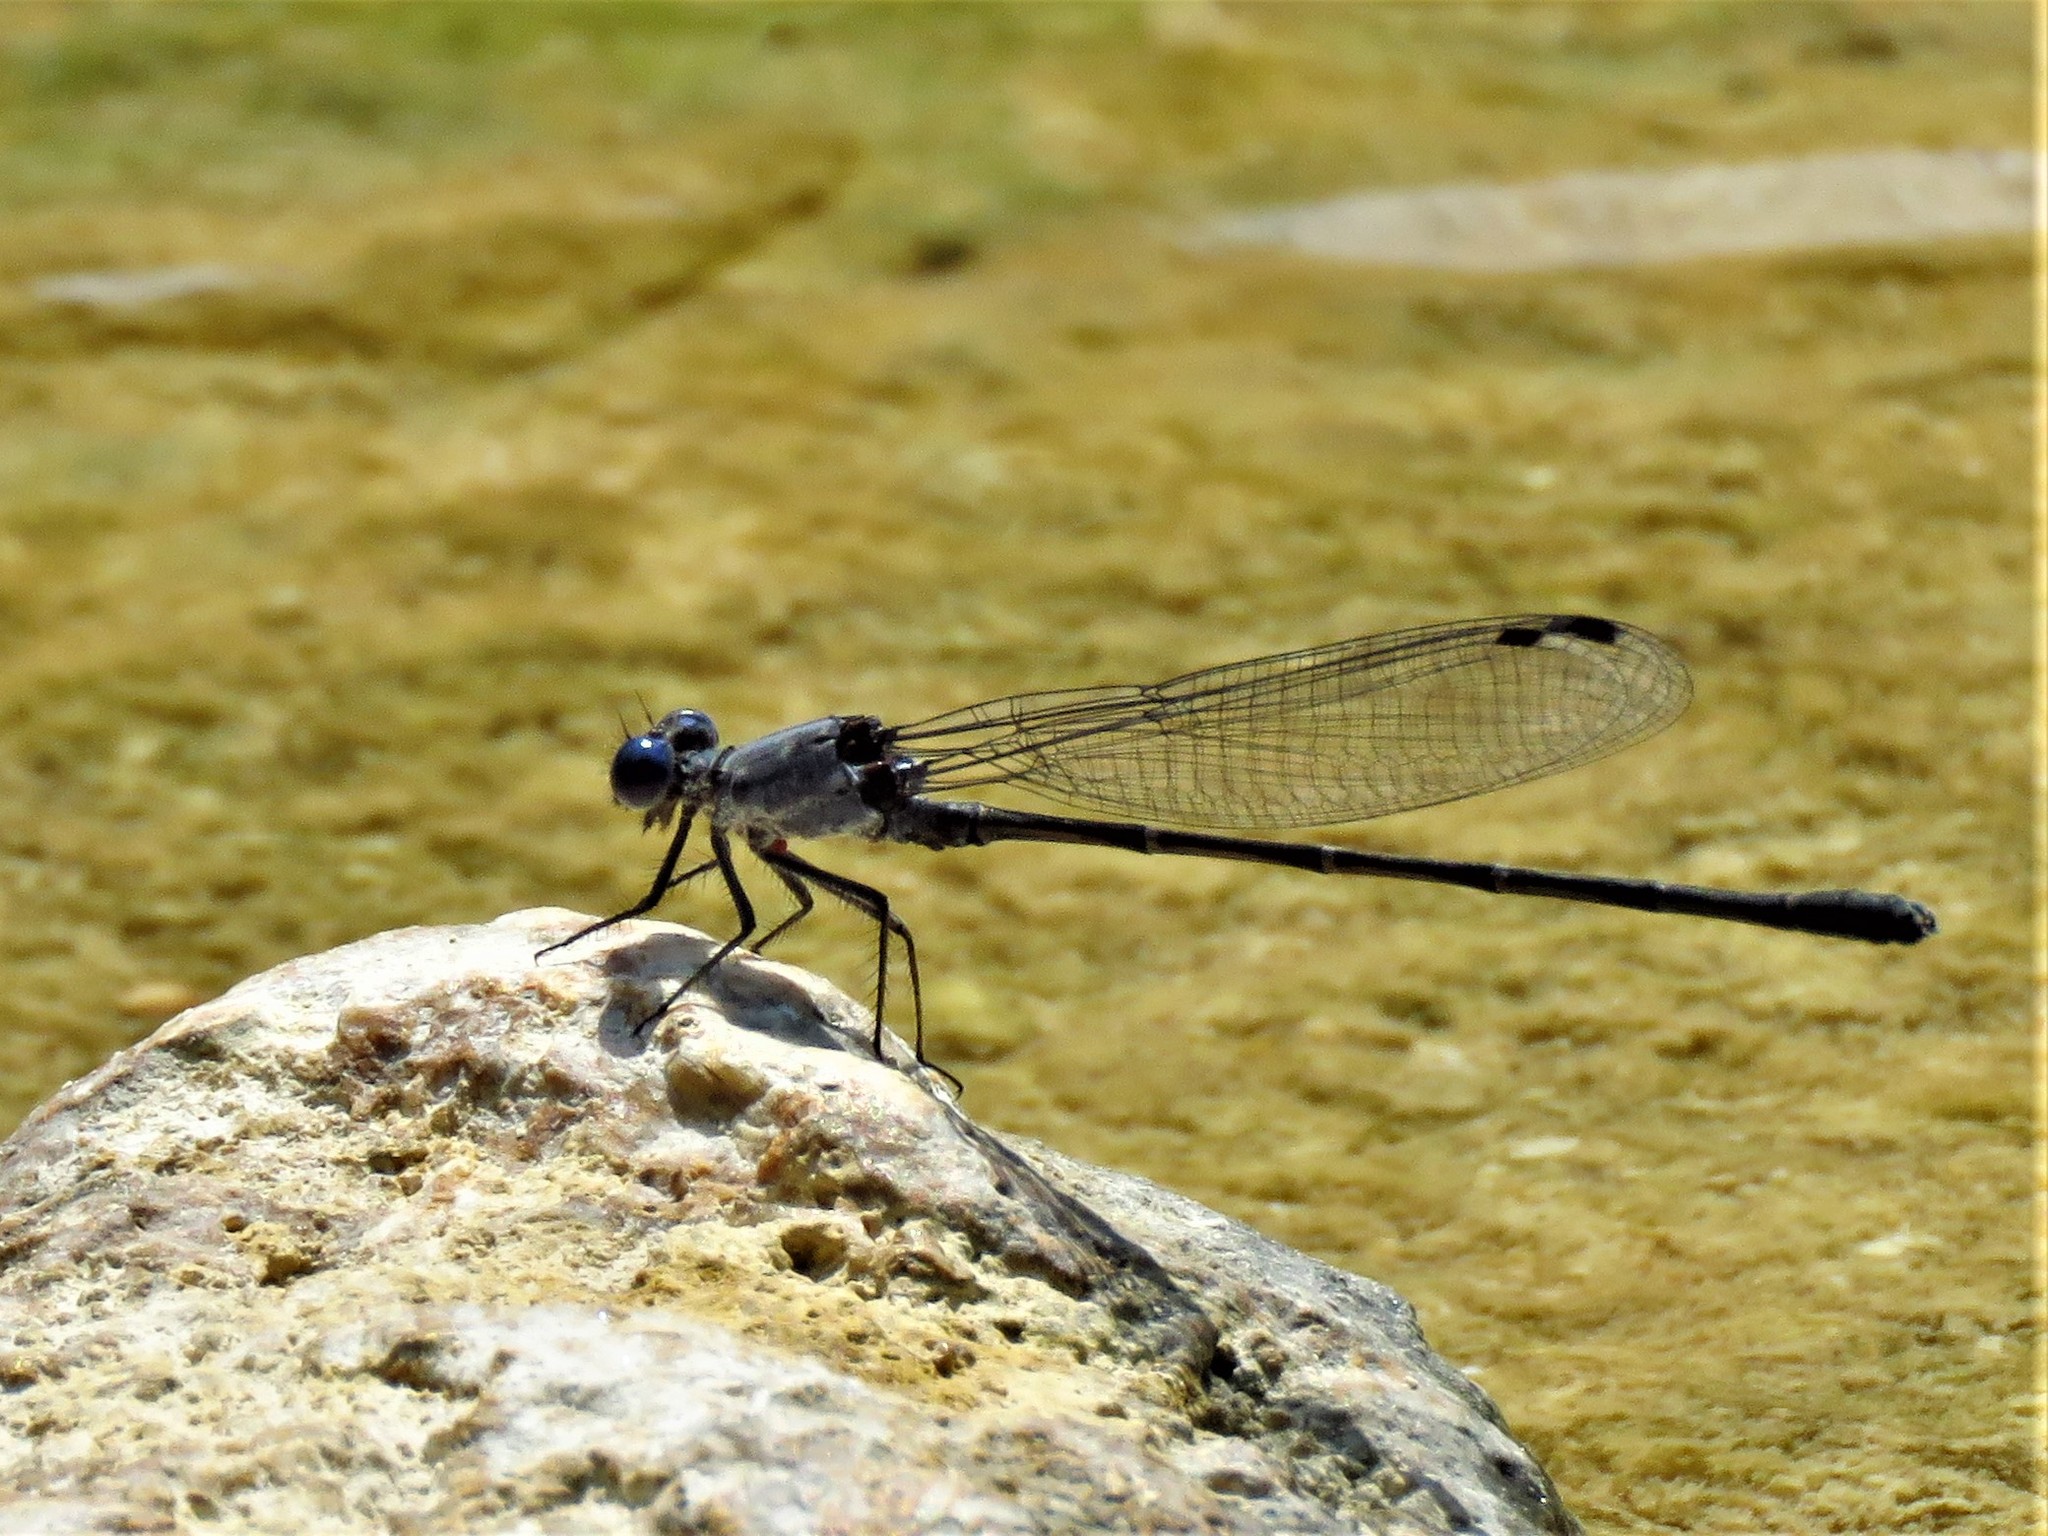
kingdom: Animalia
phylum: Arthropoda
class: Insecta
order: Odonata
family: Coenagrionidae
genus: Argia
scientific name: Argia translata
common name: Dusky dancer
